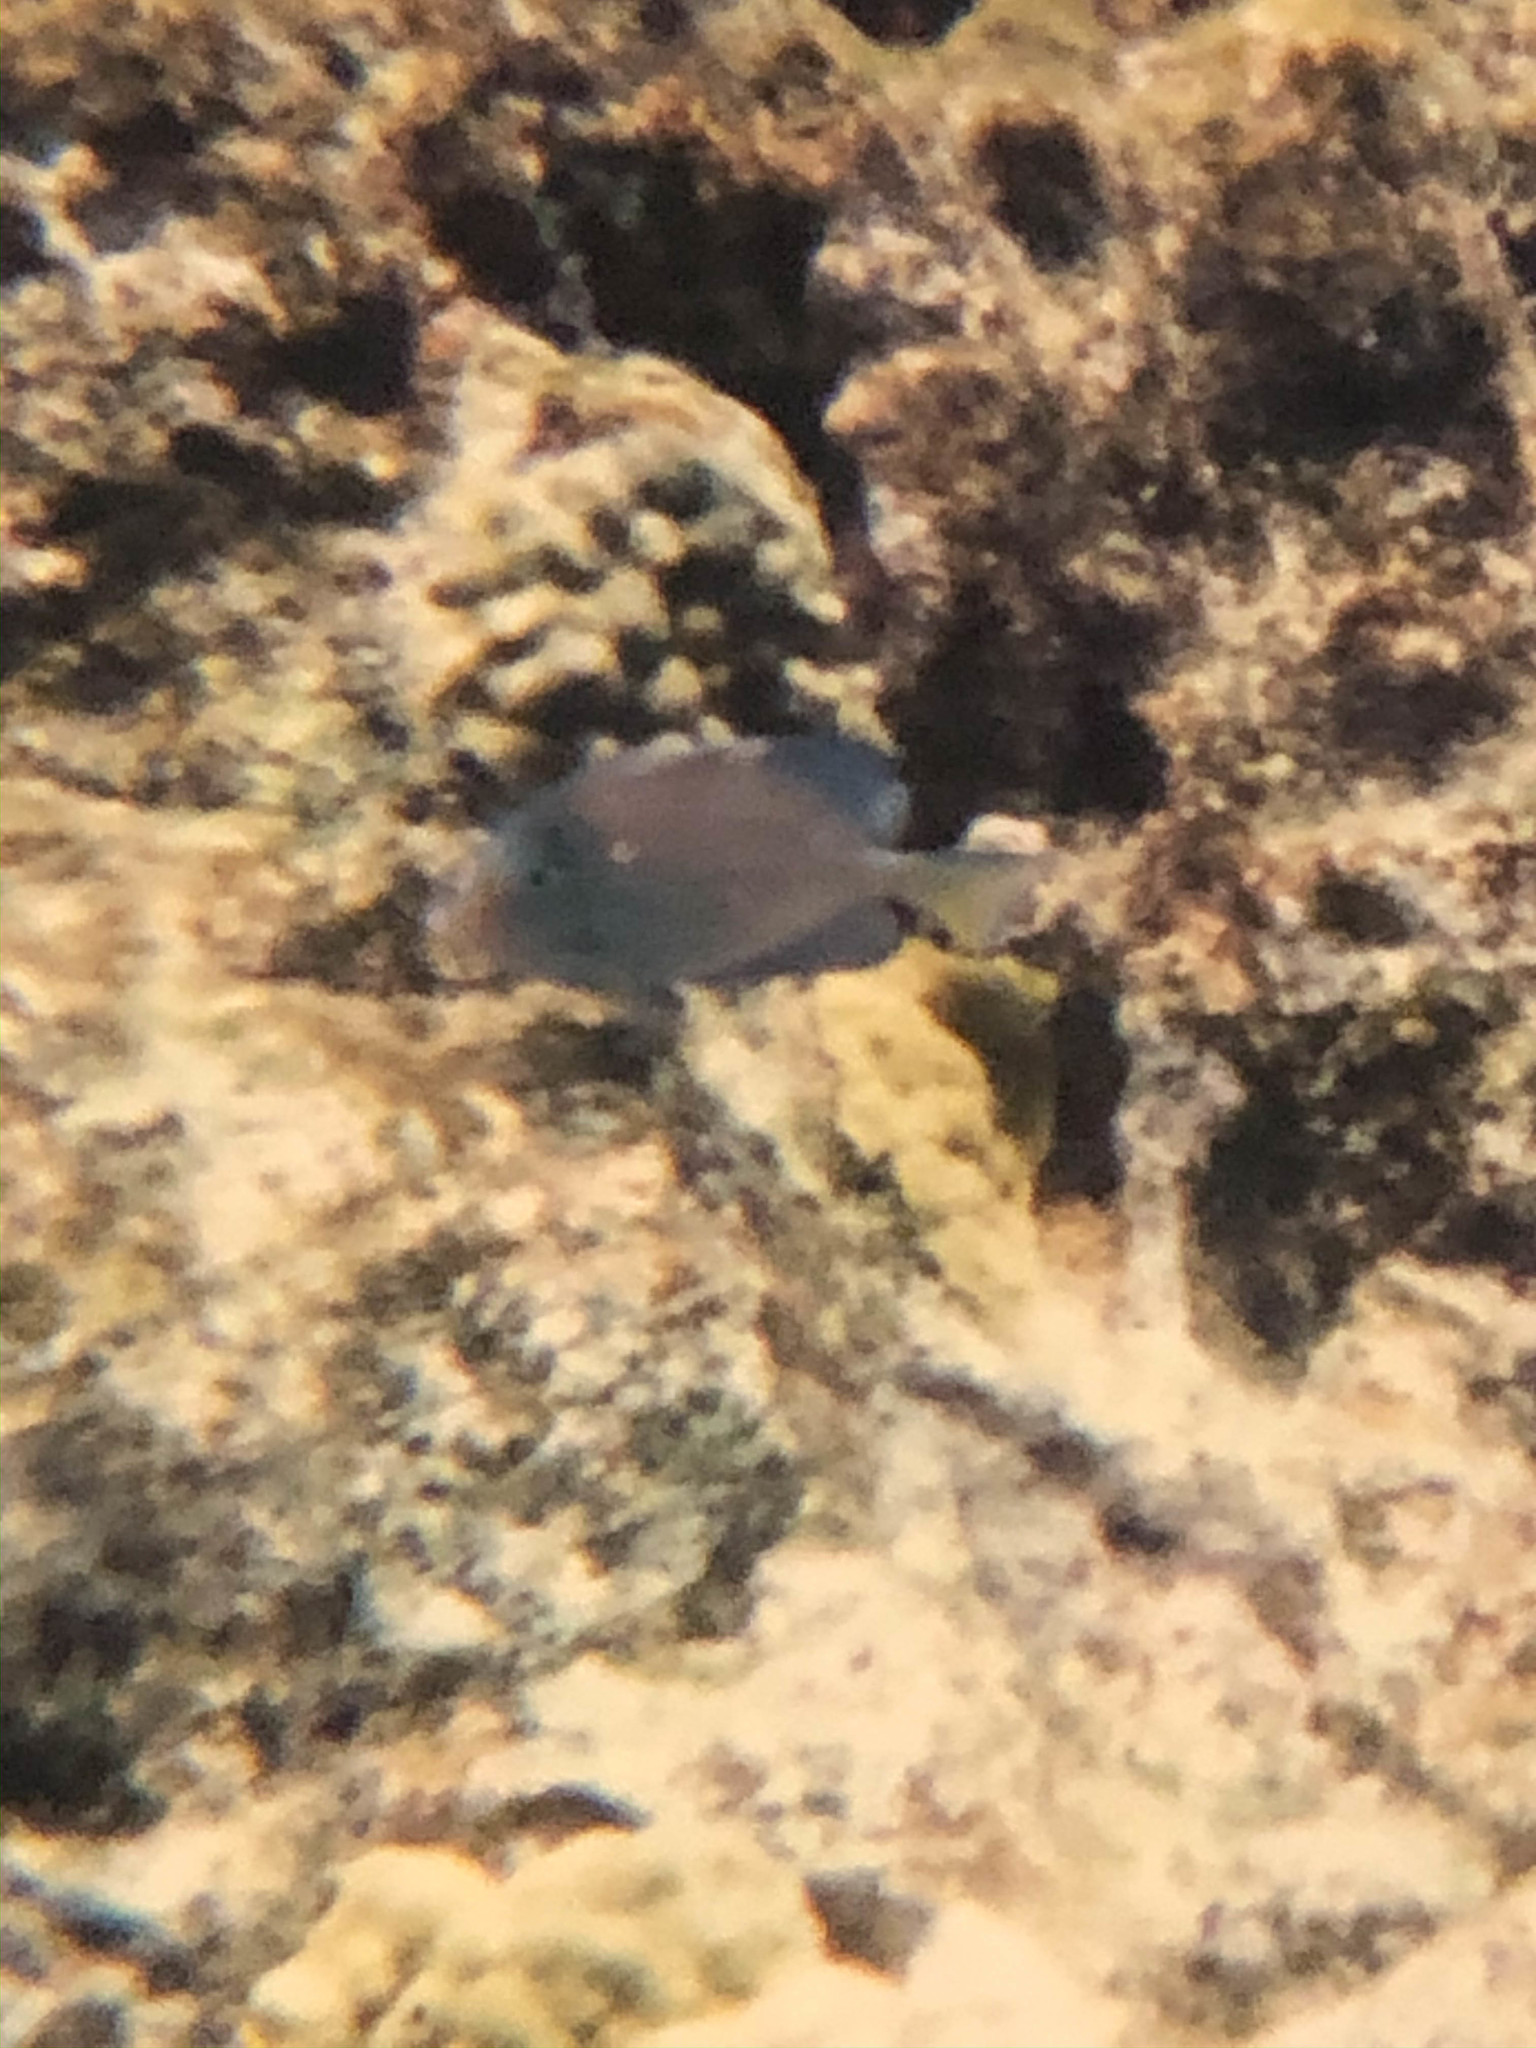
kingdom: Animalia
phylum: Chordata
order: Perciformes
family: Acanthuridae
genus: Acanthurus
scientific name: Acanthurus coeruleus
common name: Blue tang
